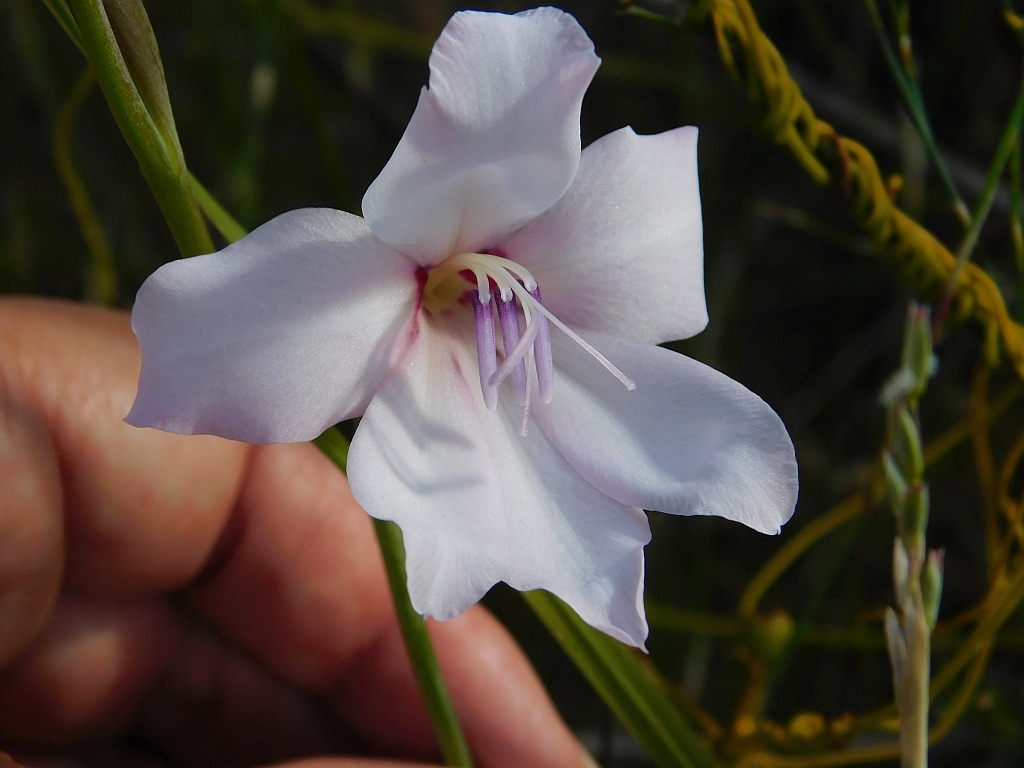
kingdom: Plantae
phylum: Tracheophyta
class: Liliopsida
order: Asparagales
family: Iridaceae
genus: Gladiolus
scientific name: Gladiolus carneus
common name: Painted-lady
